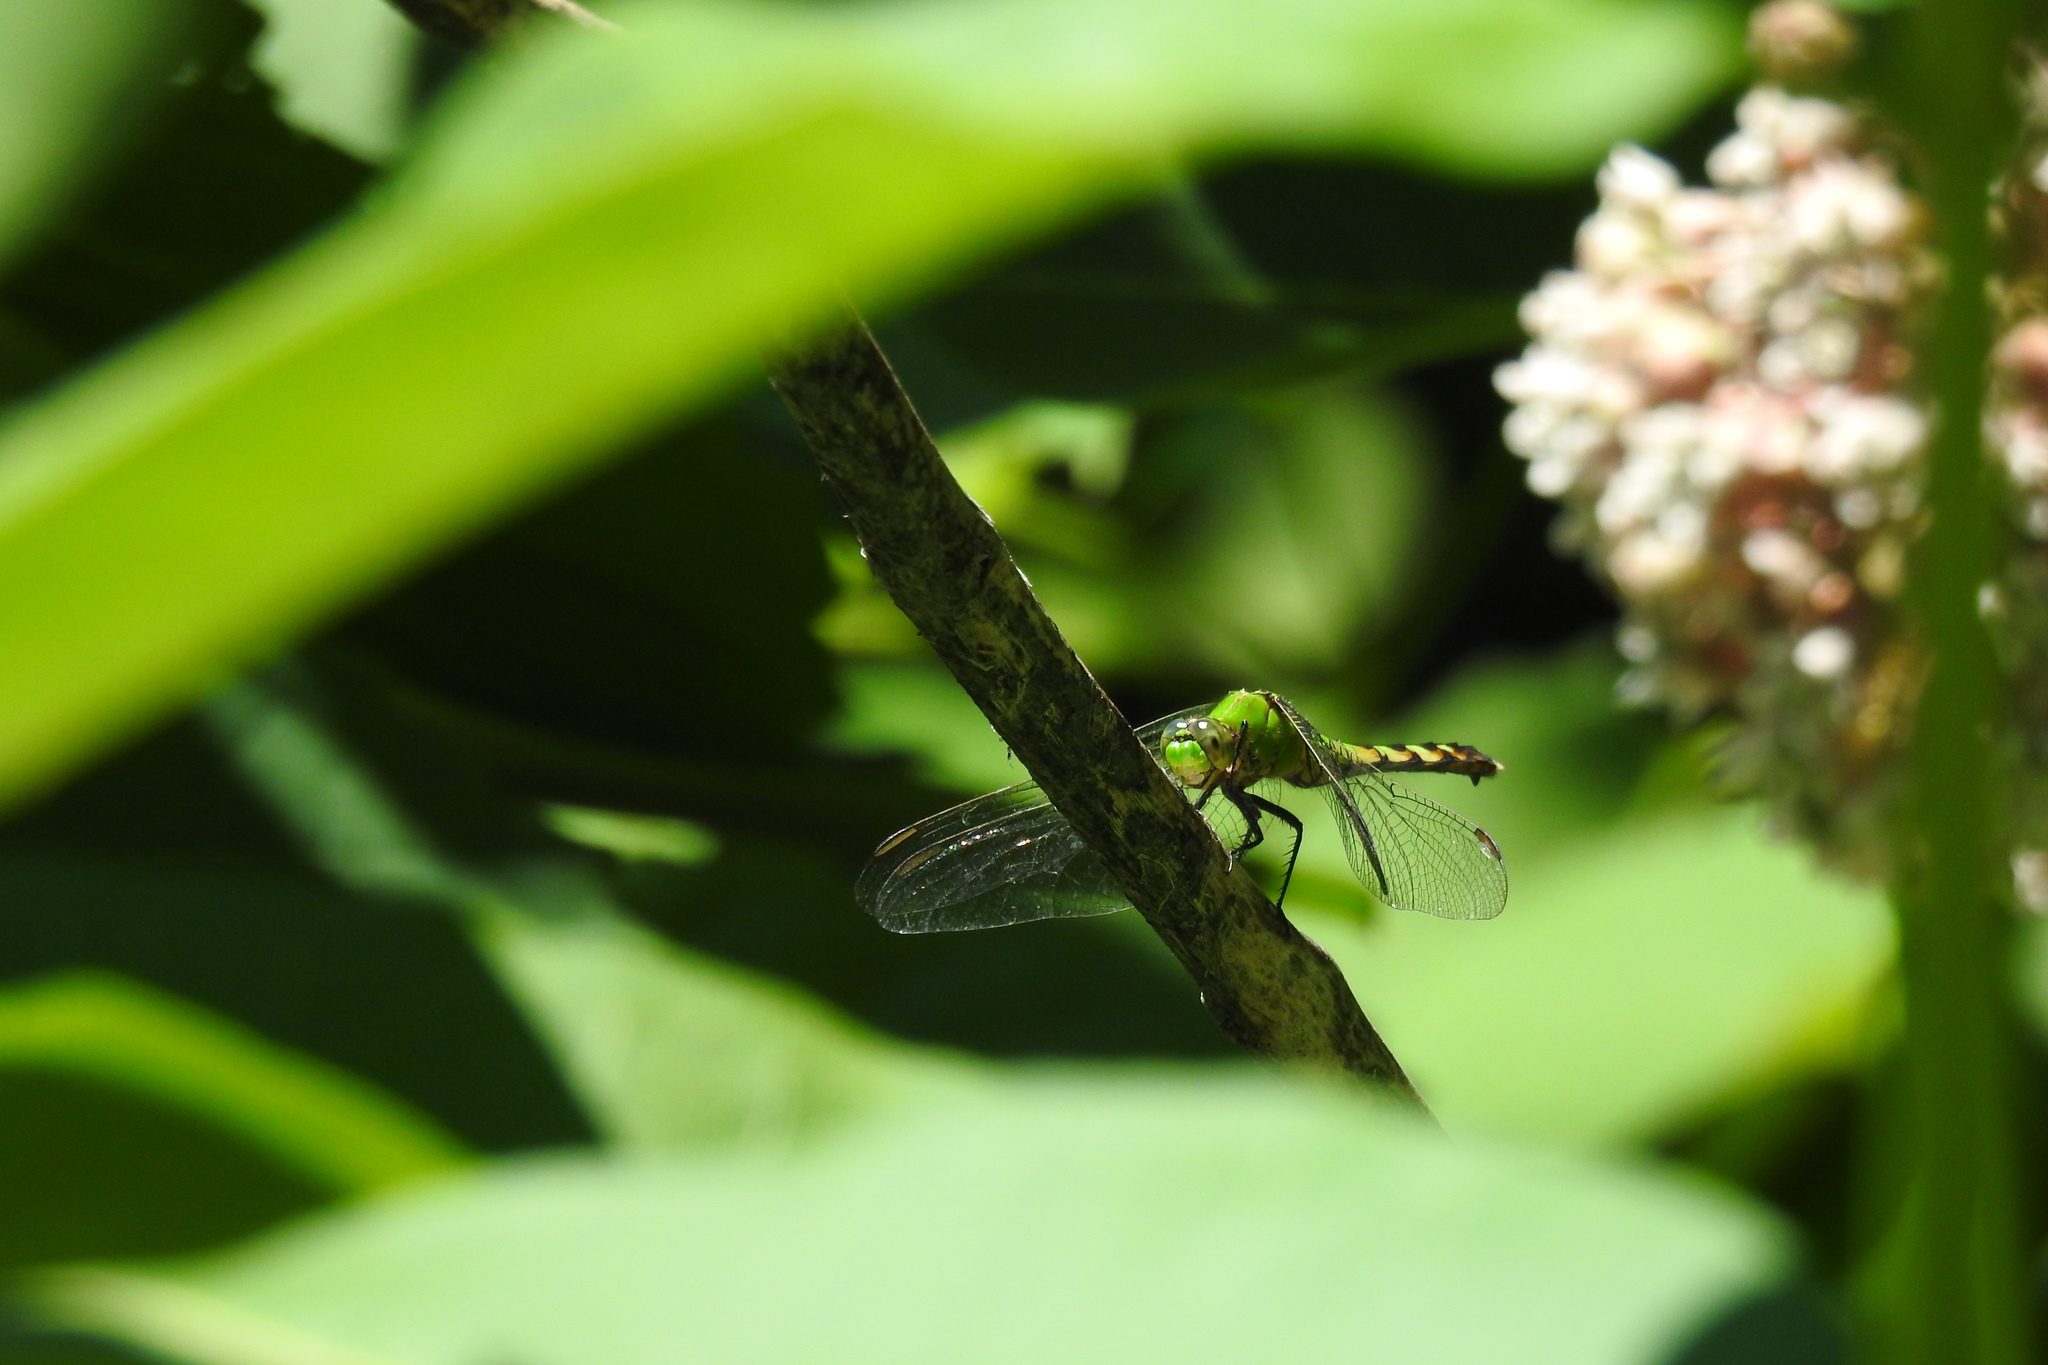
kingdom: Animalia
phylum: Arthropoda
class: Insecta
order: Odonata
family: Libellulidae
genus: Erythemis
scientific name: Erythemis simplicicollis
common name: Eastern pondhawk
